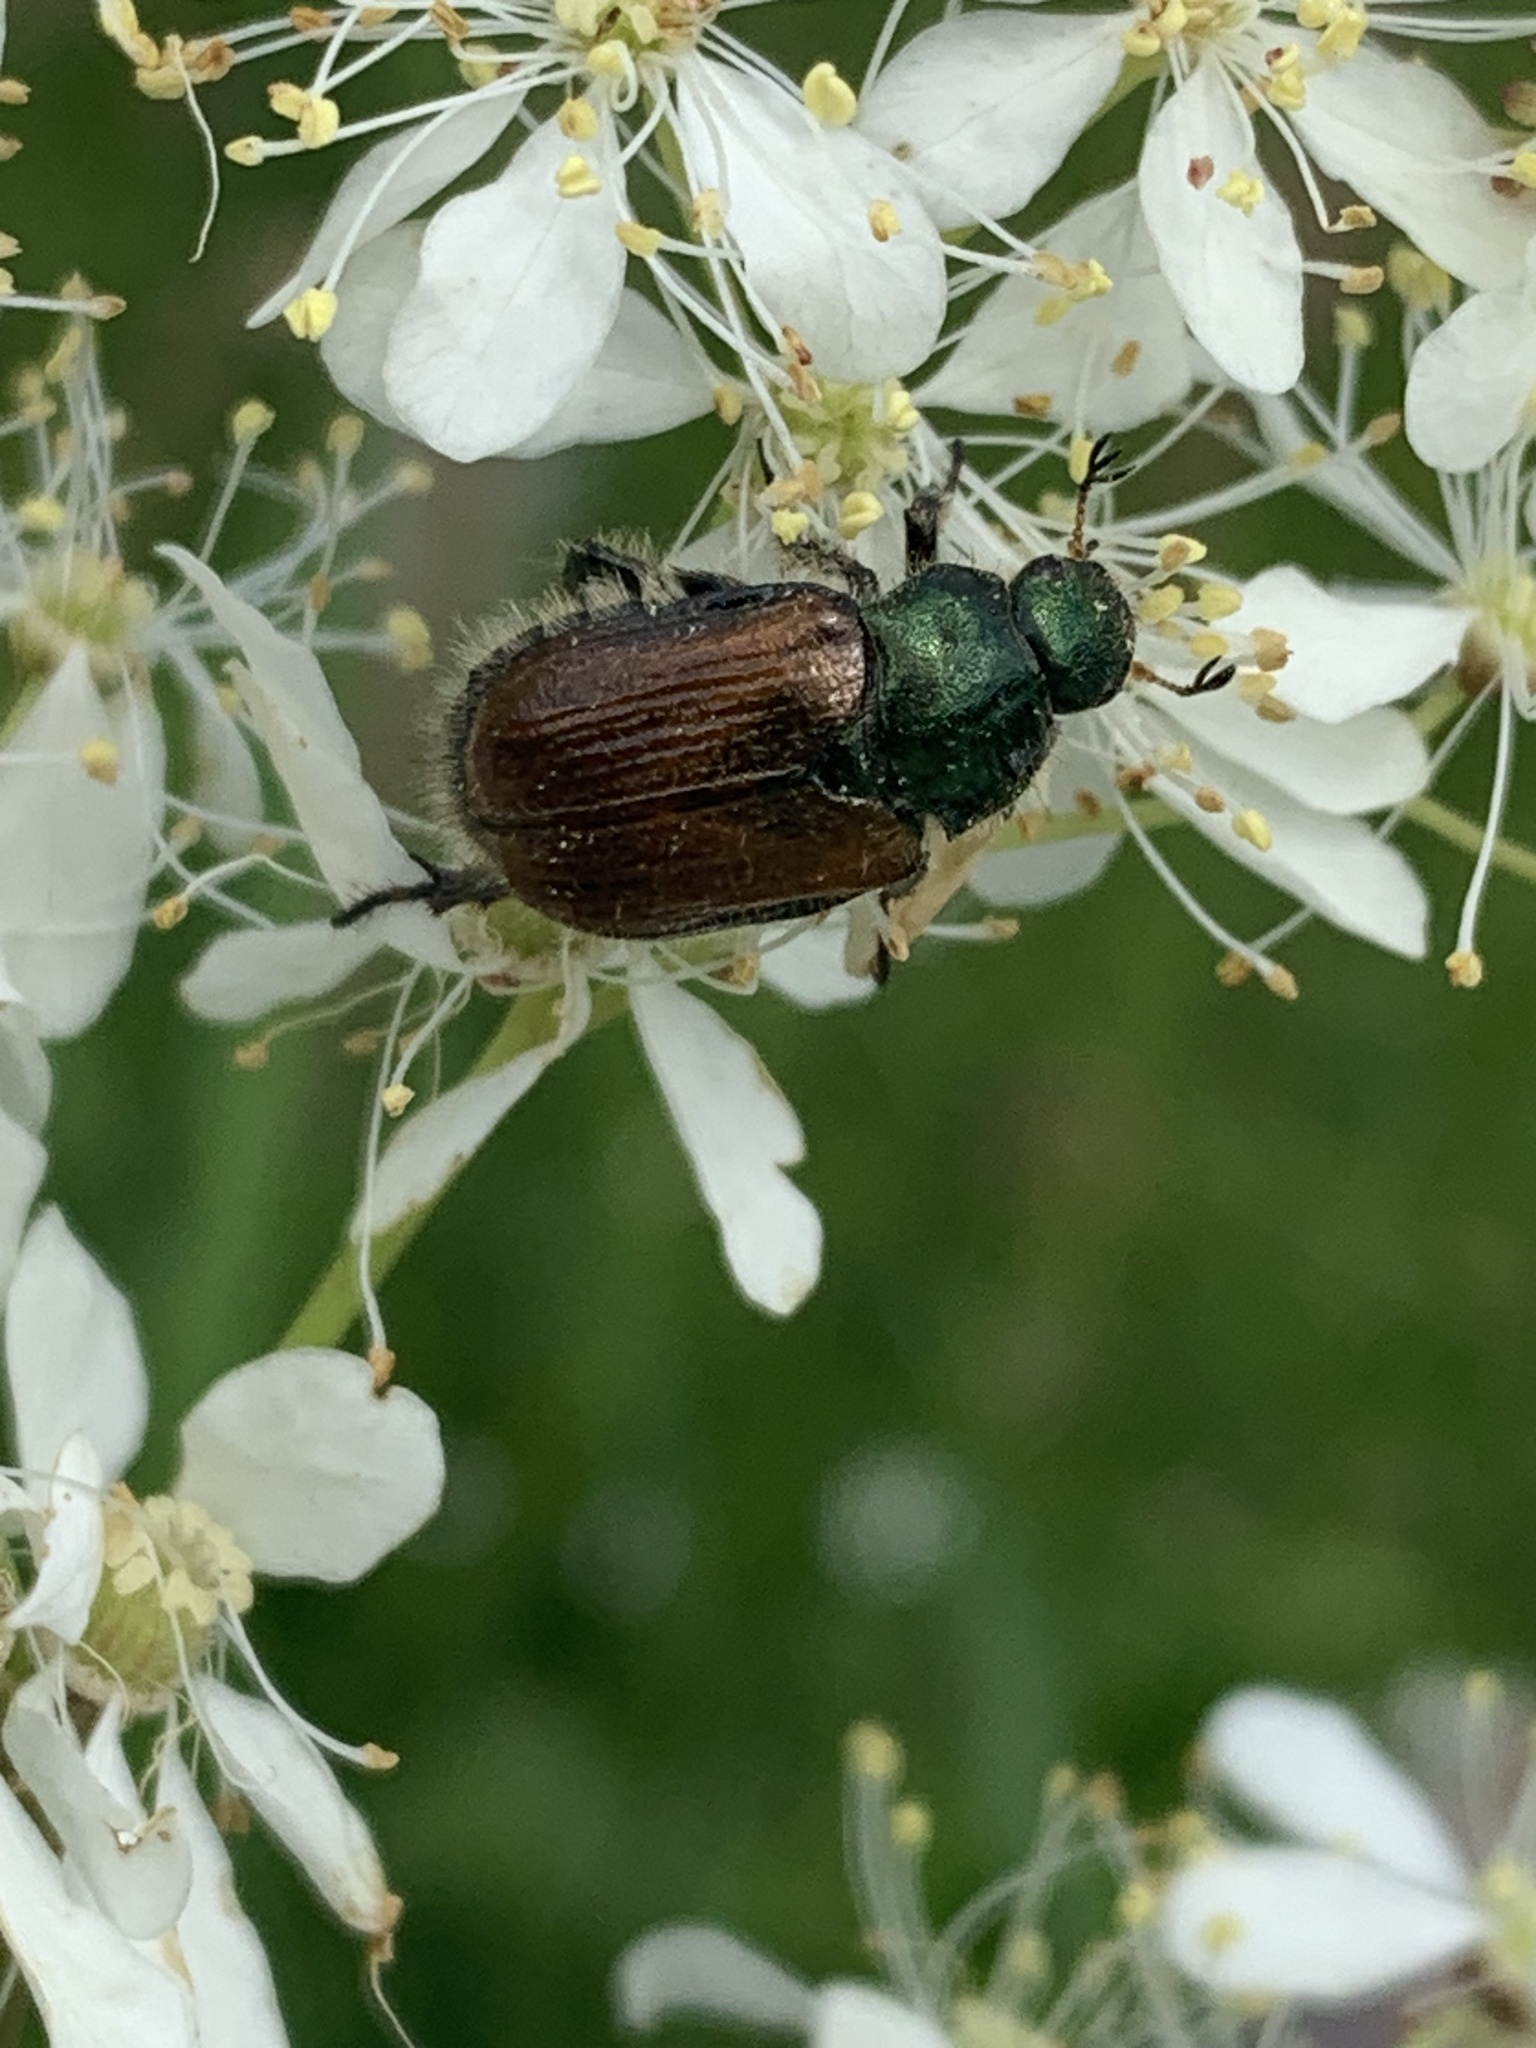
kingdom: Animalia
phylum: Arthropoda
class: Insecta
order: Coleoptera
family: Scarabaeidae
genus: Phyllopertha
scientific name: Phyllopertha horticola
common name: Garden chafer
